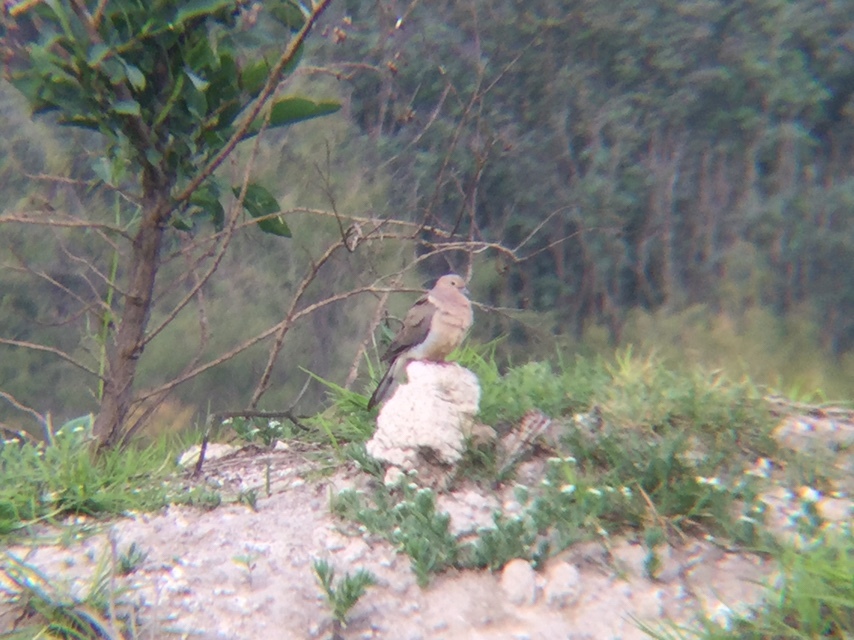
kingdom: Animalia
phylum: Chordata
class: Aves
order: Columbiformes
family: Columbidae
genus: Zenaida
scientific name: Zenaida macroura
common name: Mourning dove
